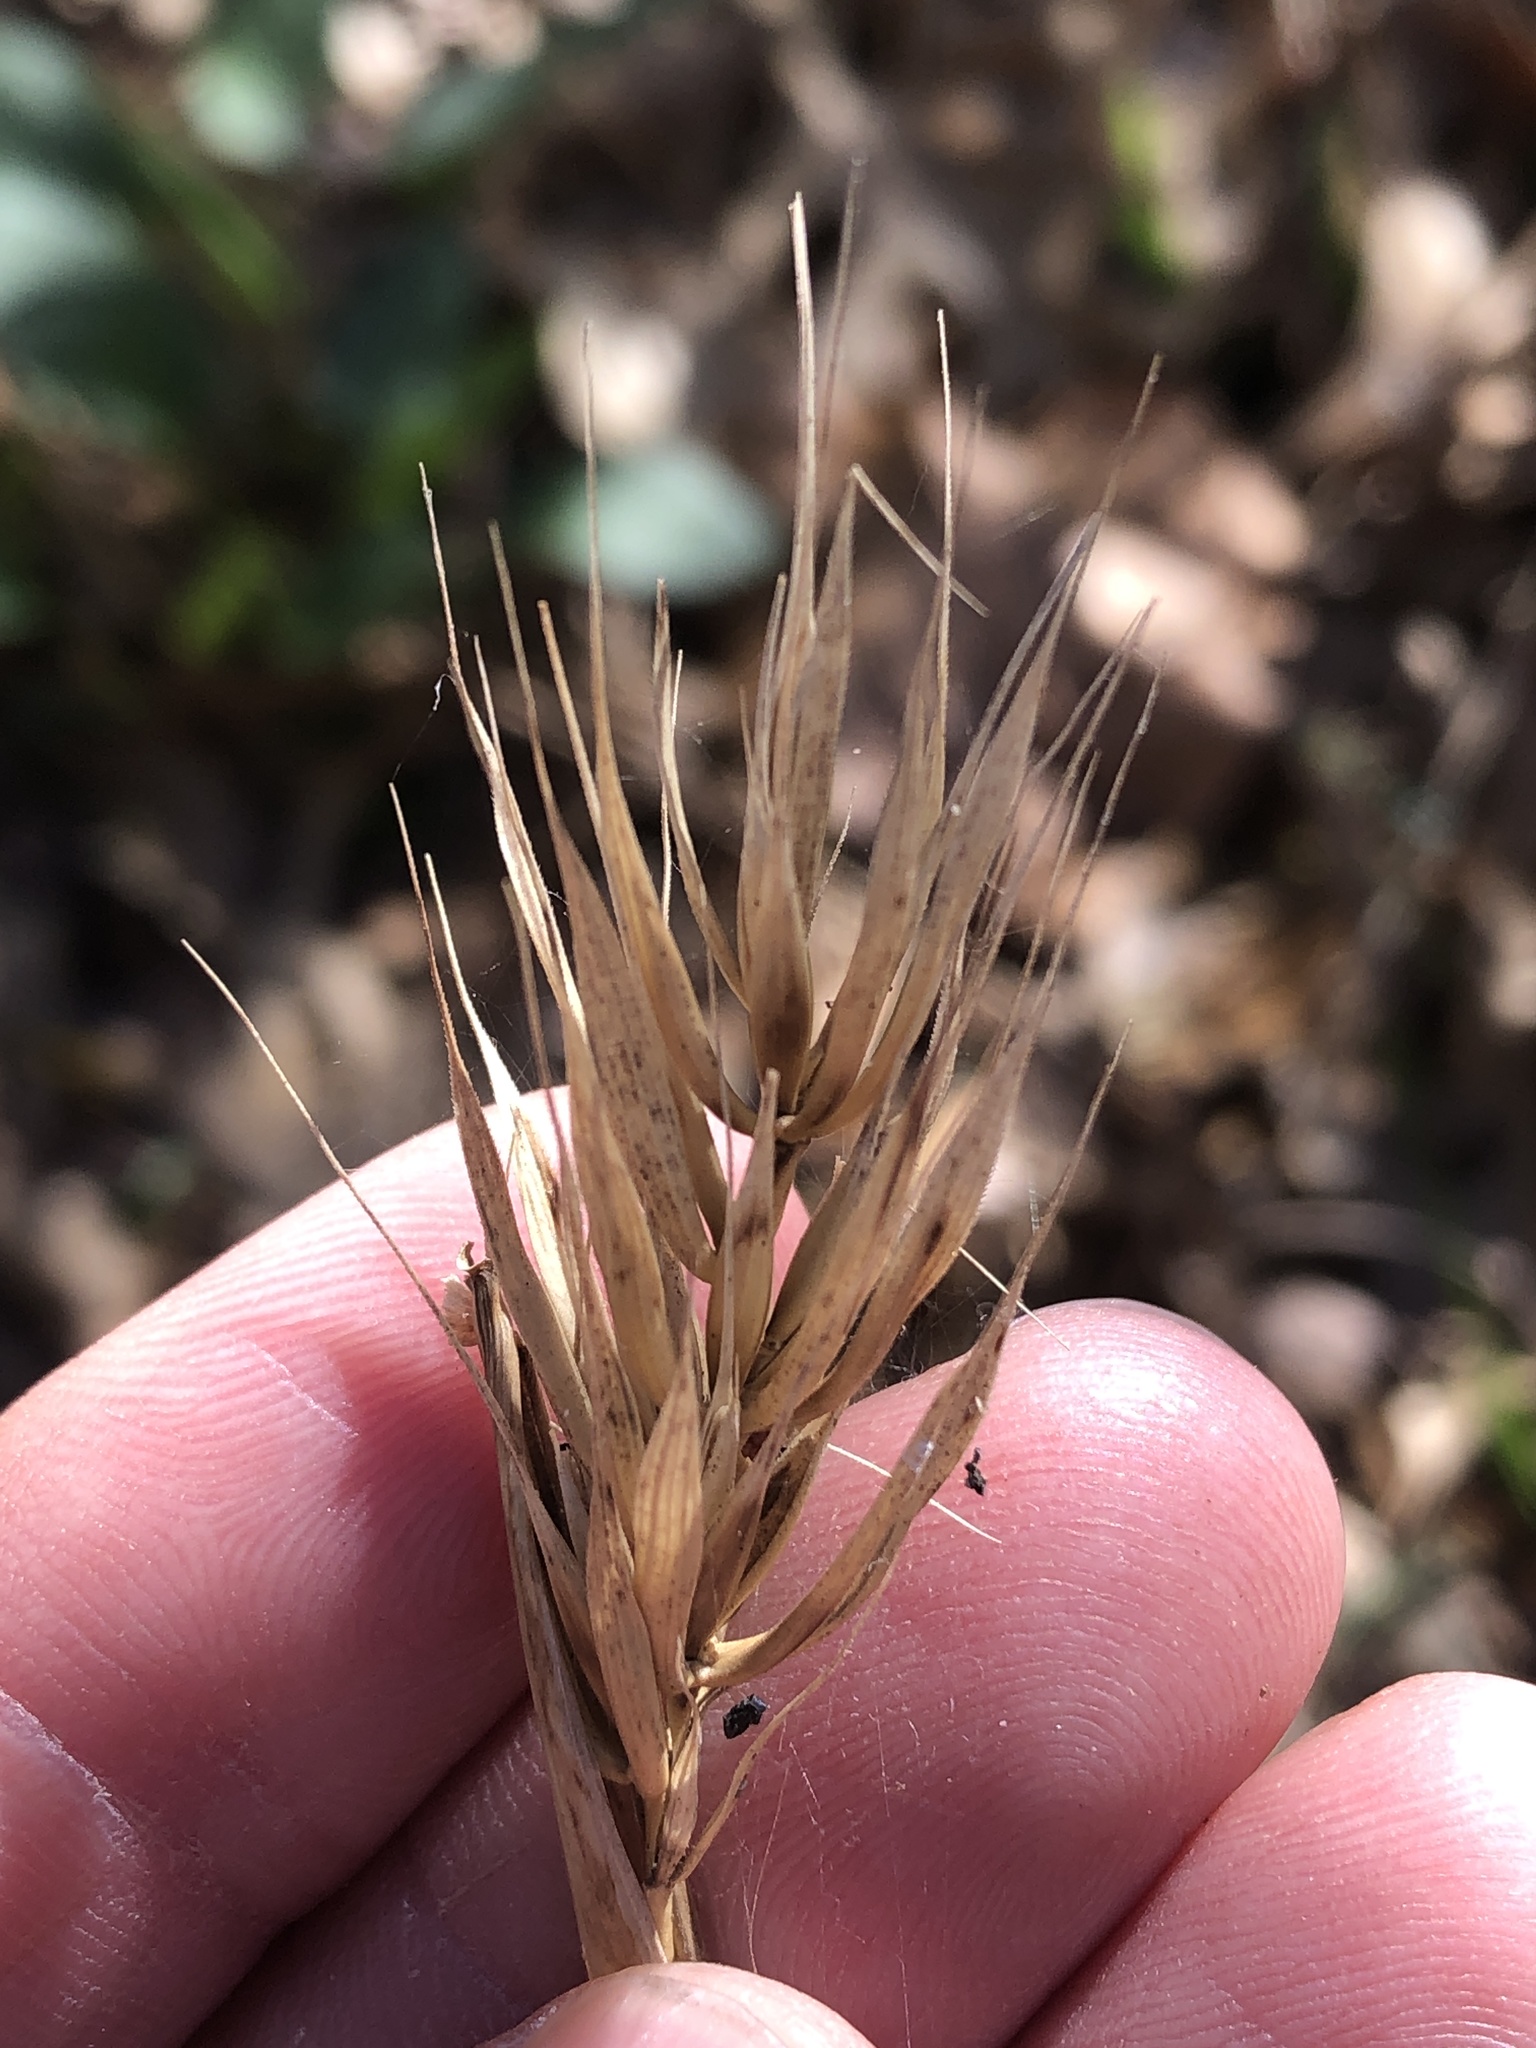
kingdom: Plantae
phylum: Tracheophyta
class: Liliopsida
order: Poales
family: Poaceae
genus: Elymus
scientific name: Elymus virginicus
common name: Common eastern wildrye
